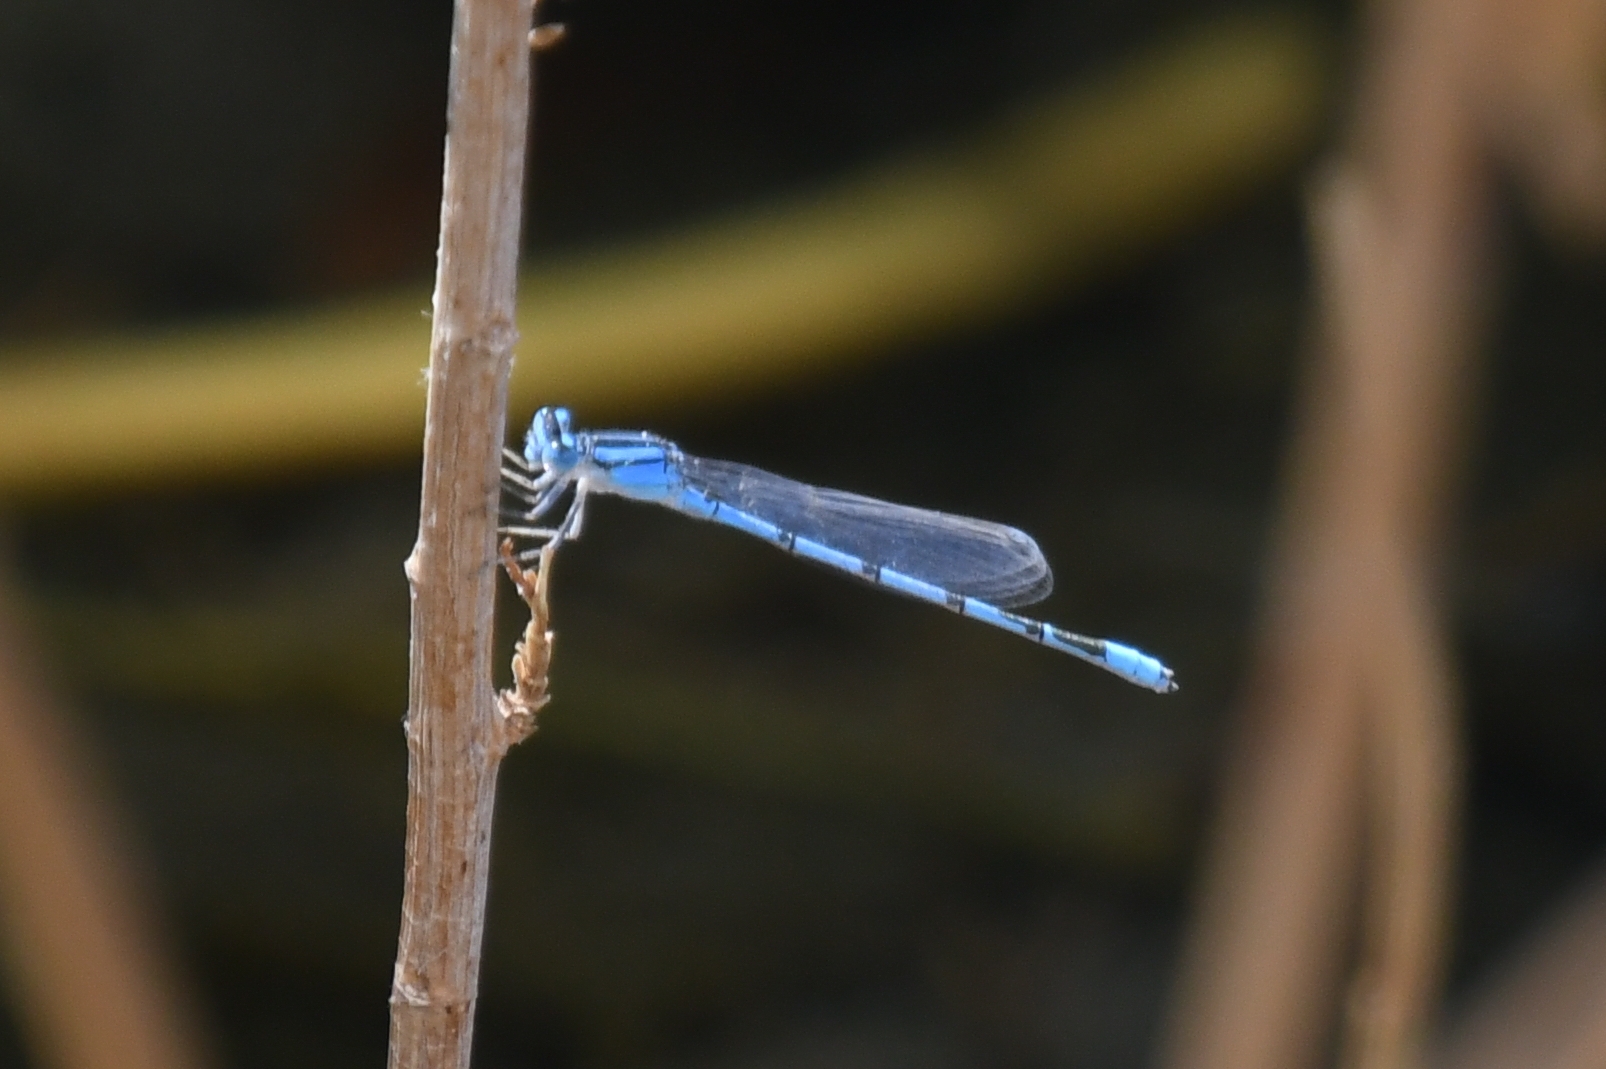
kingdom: Animalia
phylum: Arthropoda
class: Insecta
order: Odonata
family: Coenagrionidae
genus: Enallagma
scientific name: Enallagma civile
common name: Damselfly
